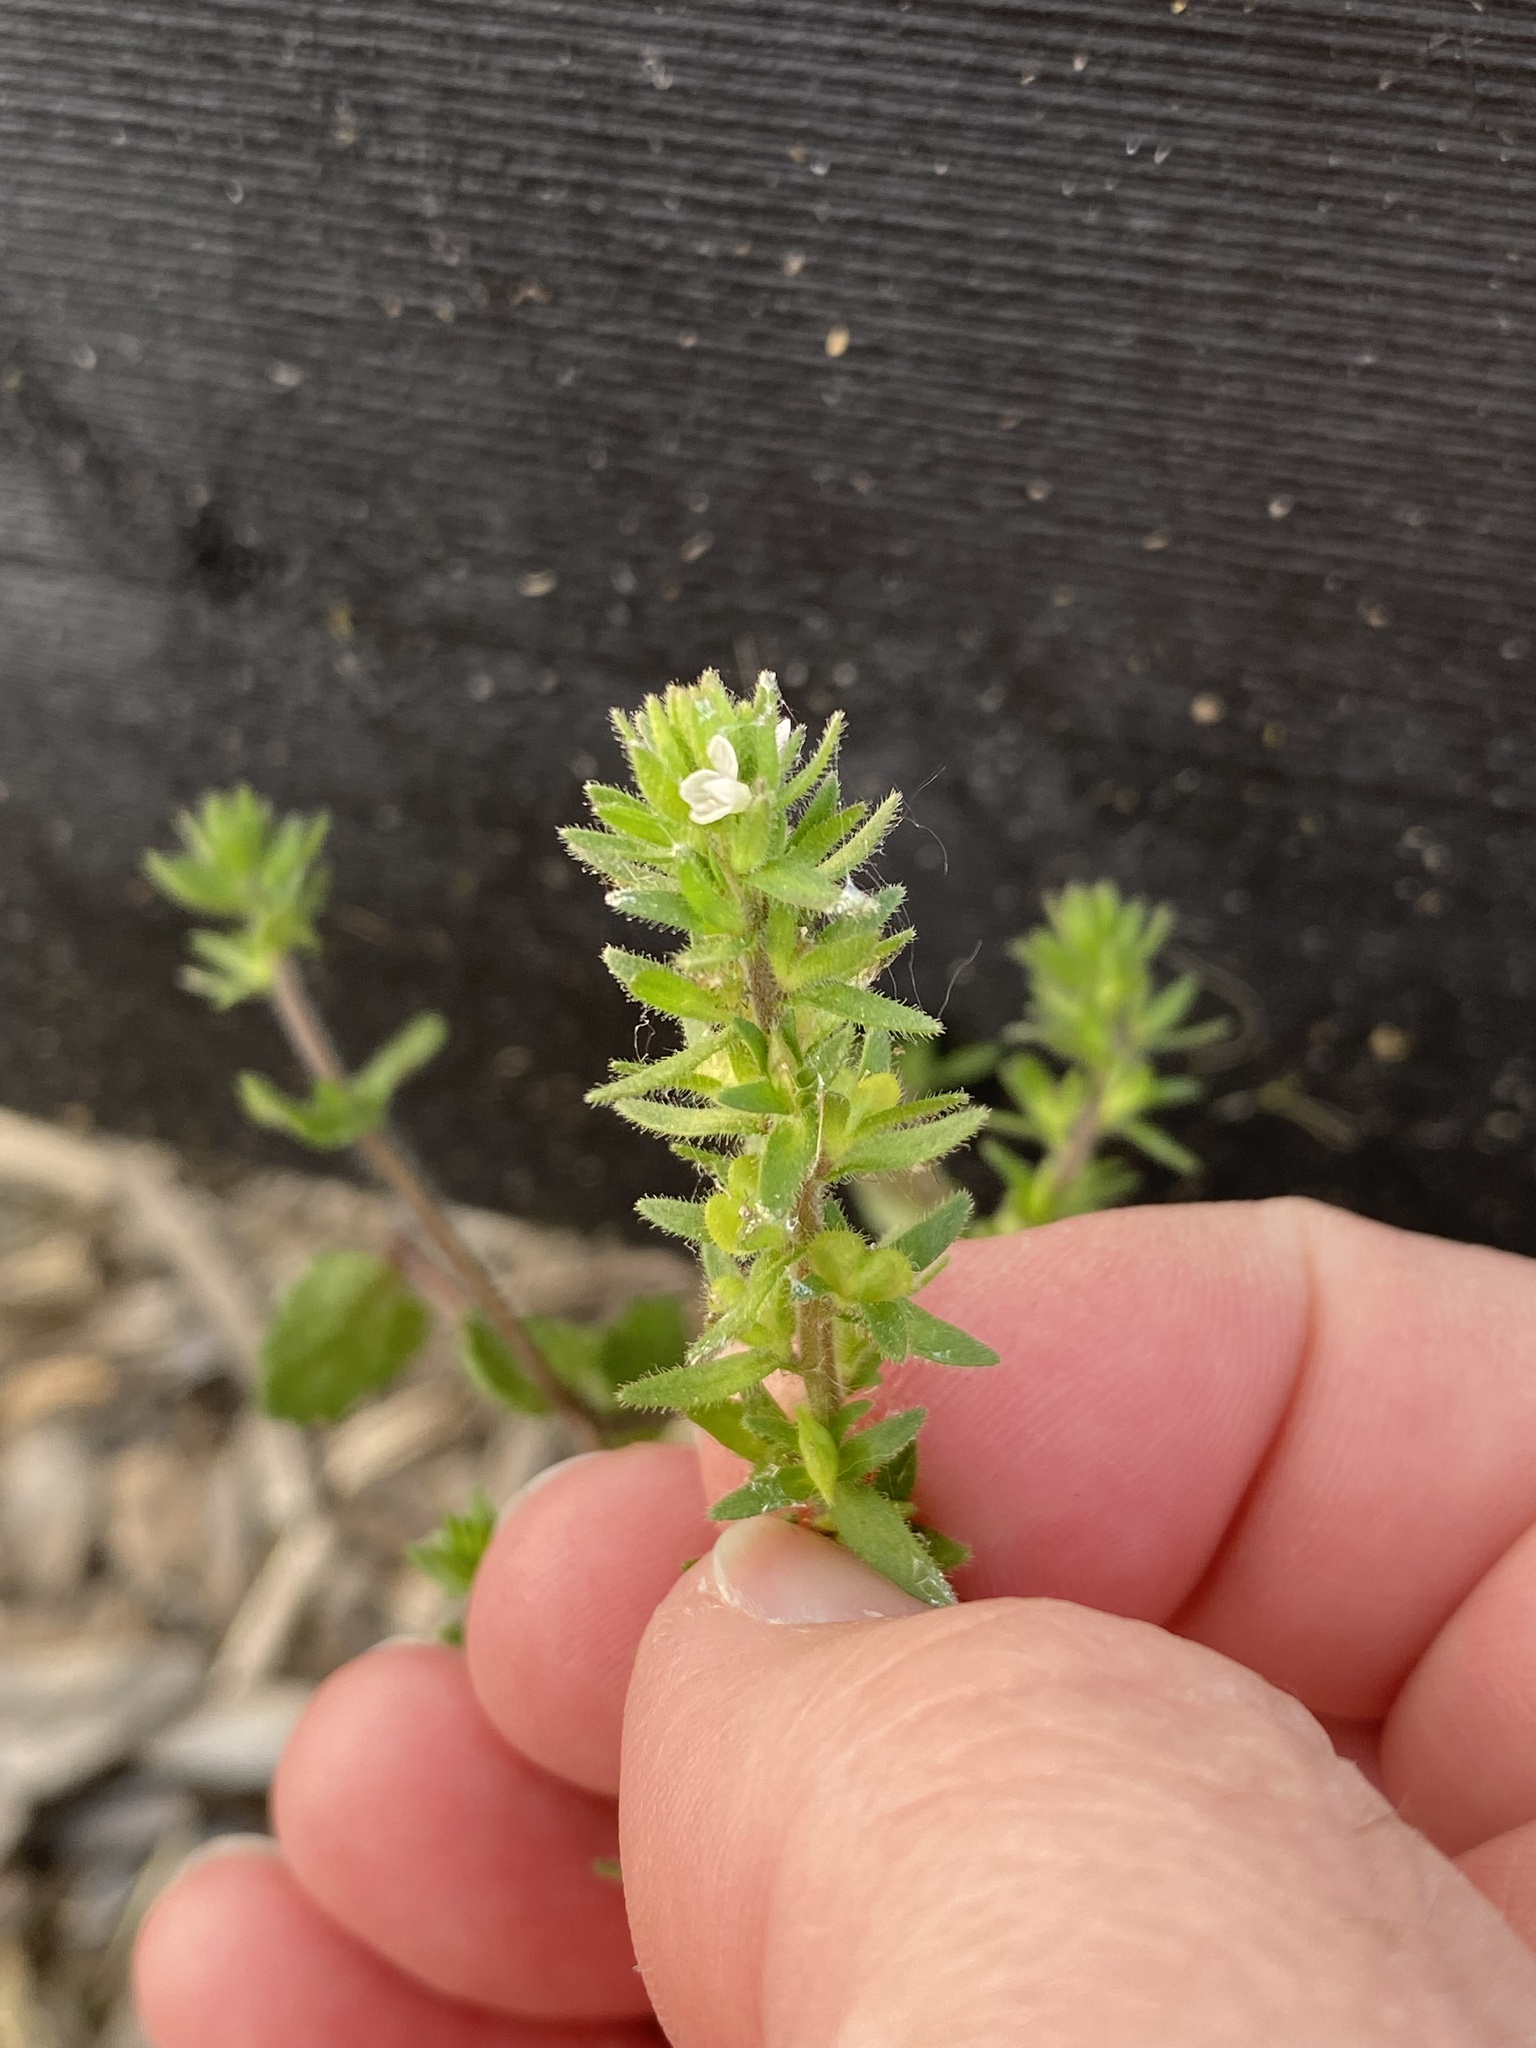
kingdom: Plantae
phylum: Tracheophyta
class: Magnoliopsida
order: Lamiales
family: Plantaginaceae
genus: Veronica
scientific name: Veronica arvensis
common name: Corn speedwell
